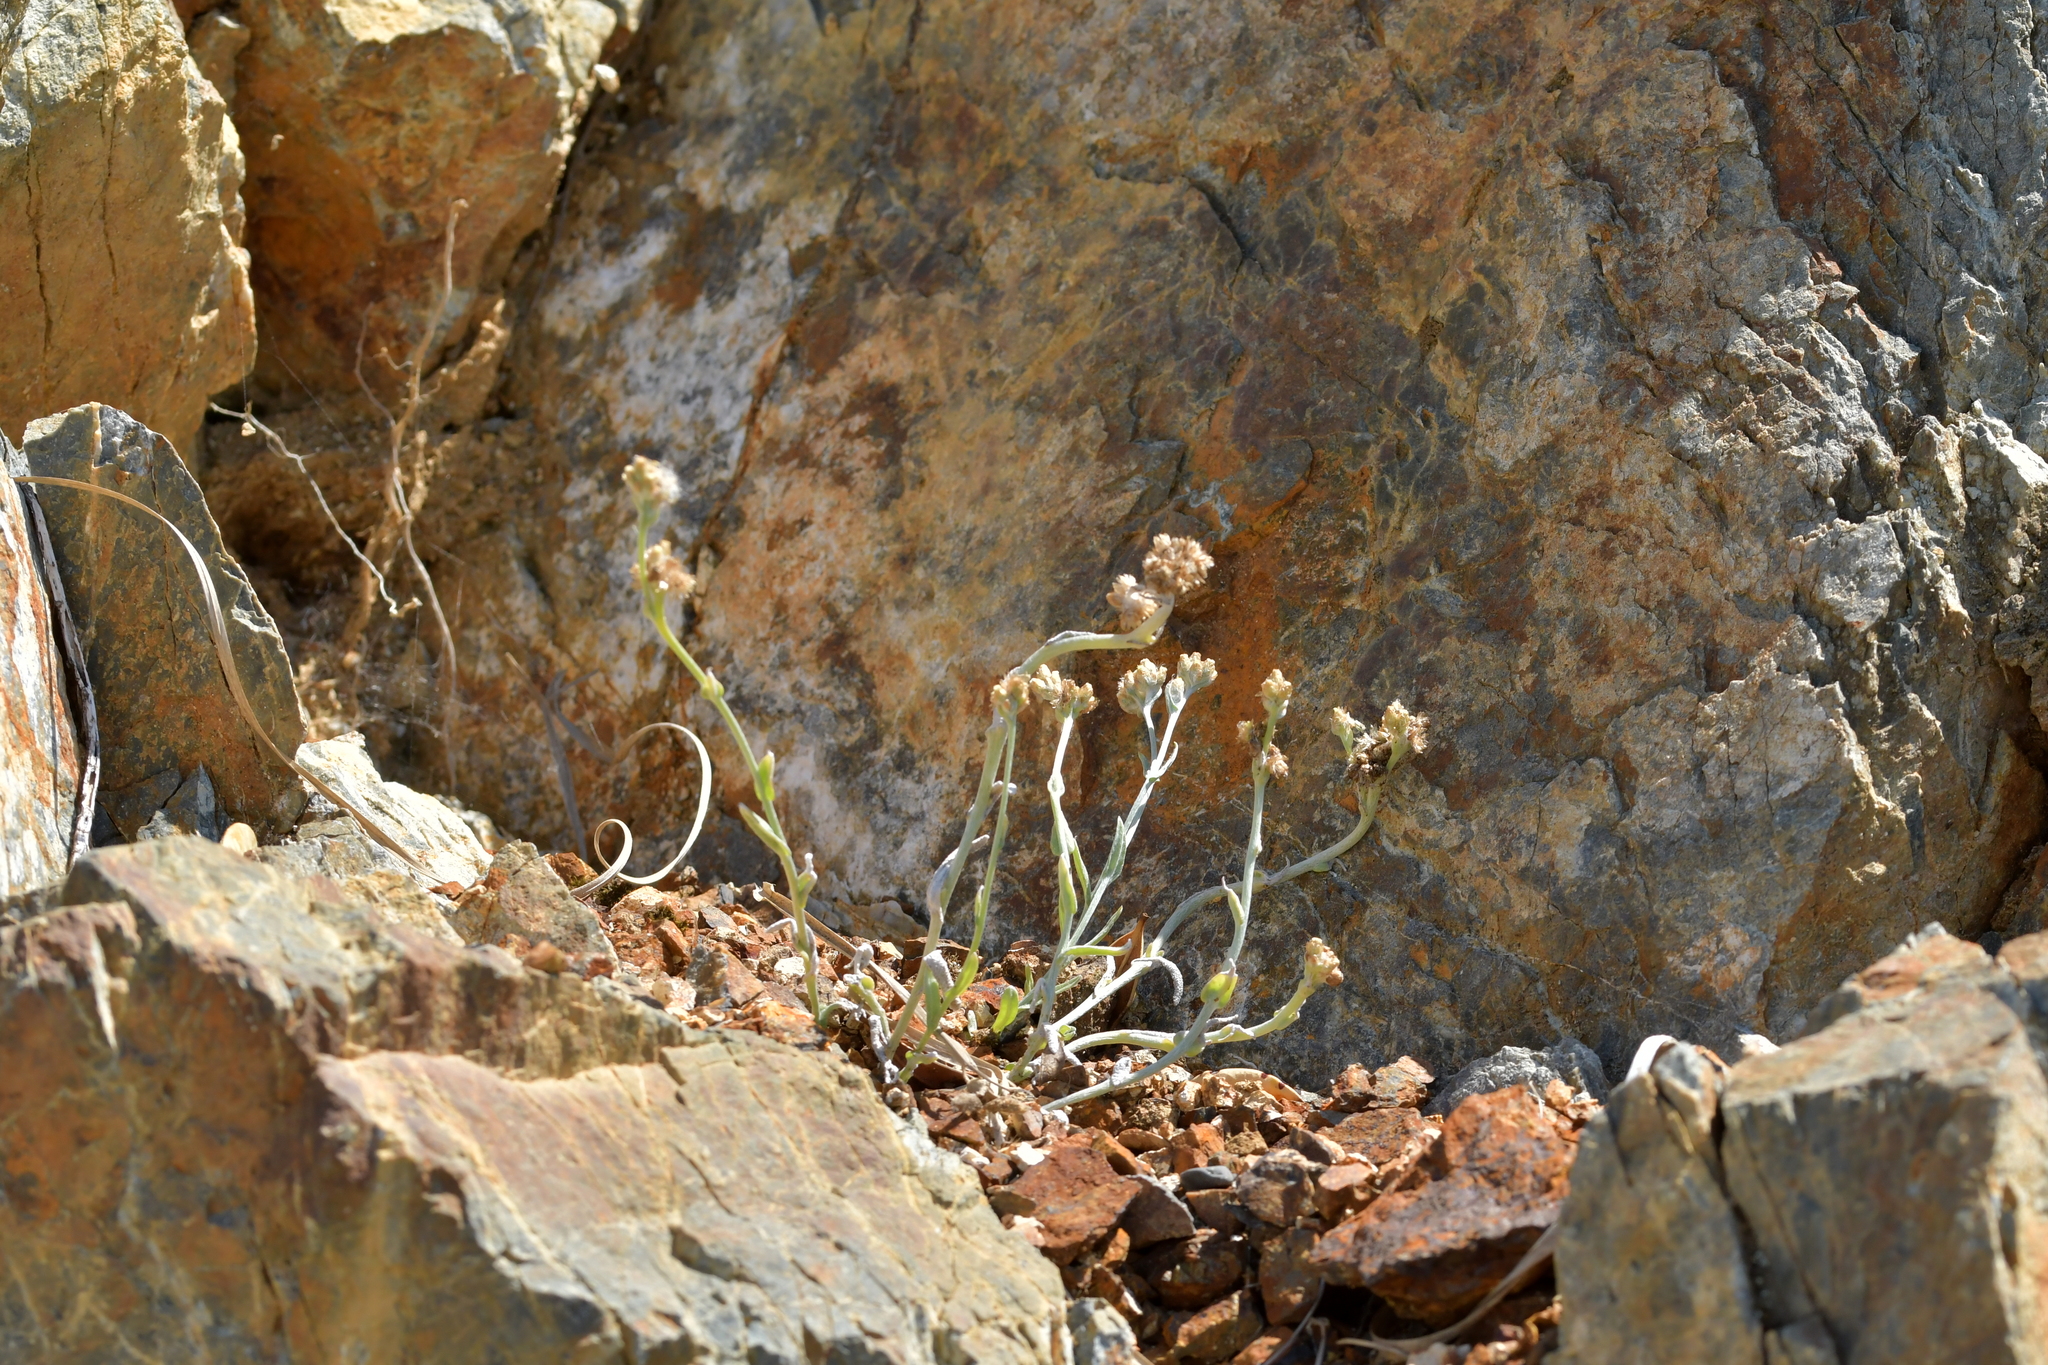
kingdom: Plantae
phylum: Tracheophyta
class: Magnoliopsida
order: Asterales
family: Asteraceae
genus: Pseudognaphalium
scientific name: Pseudognaphalium
